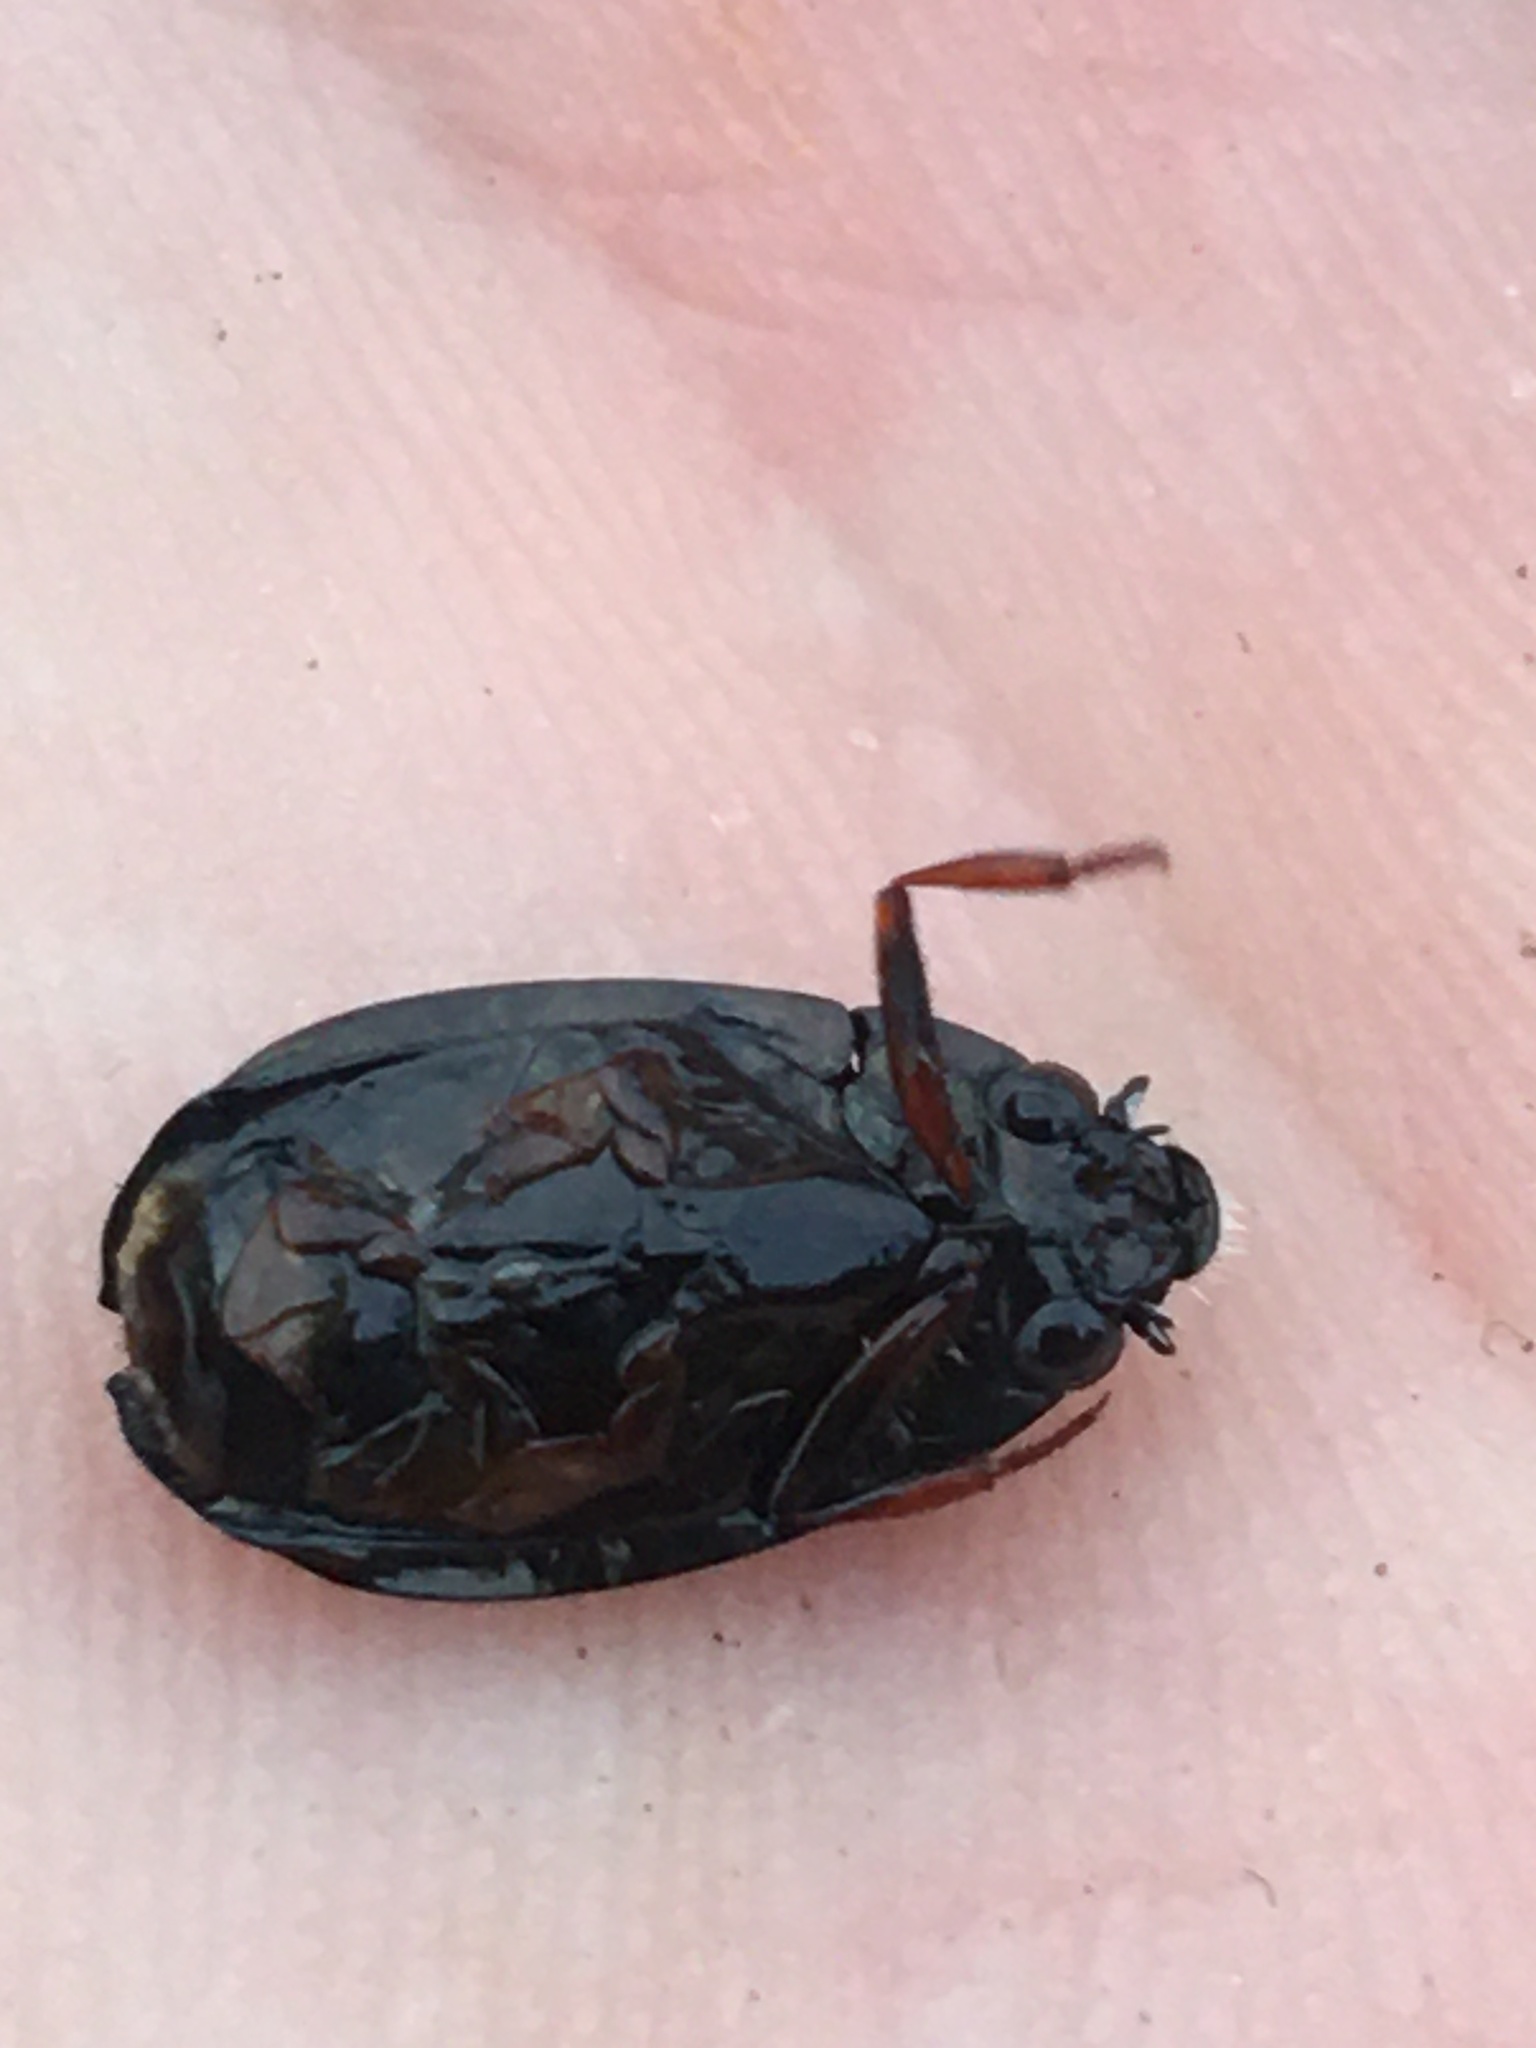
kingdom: Animalia
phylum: Arthropoda
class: Insecta
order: Coleoptera
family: Gyrinidae
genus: Dineutus
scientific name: Dineutus
